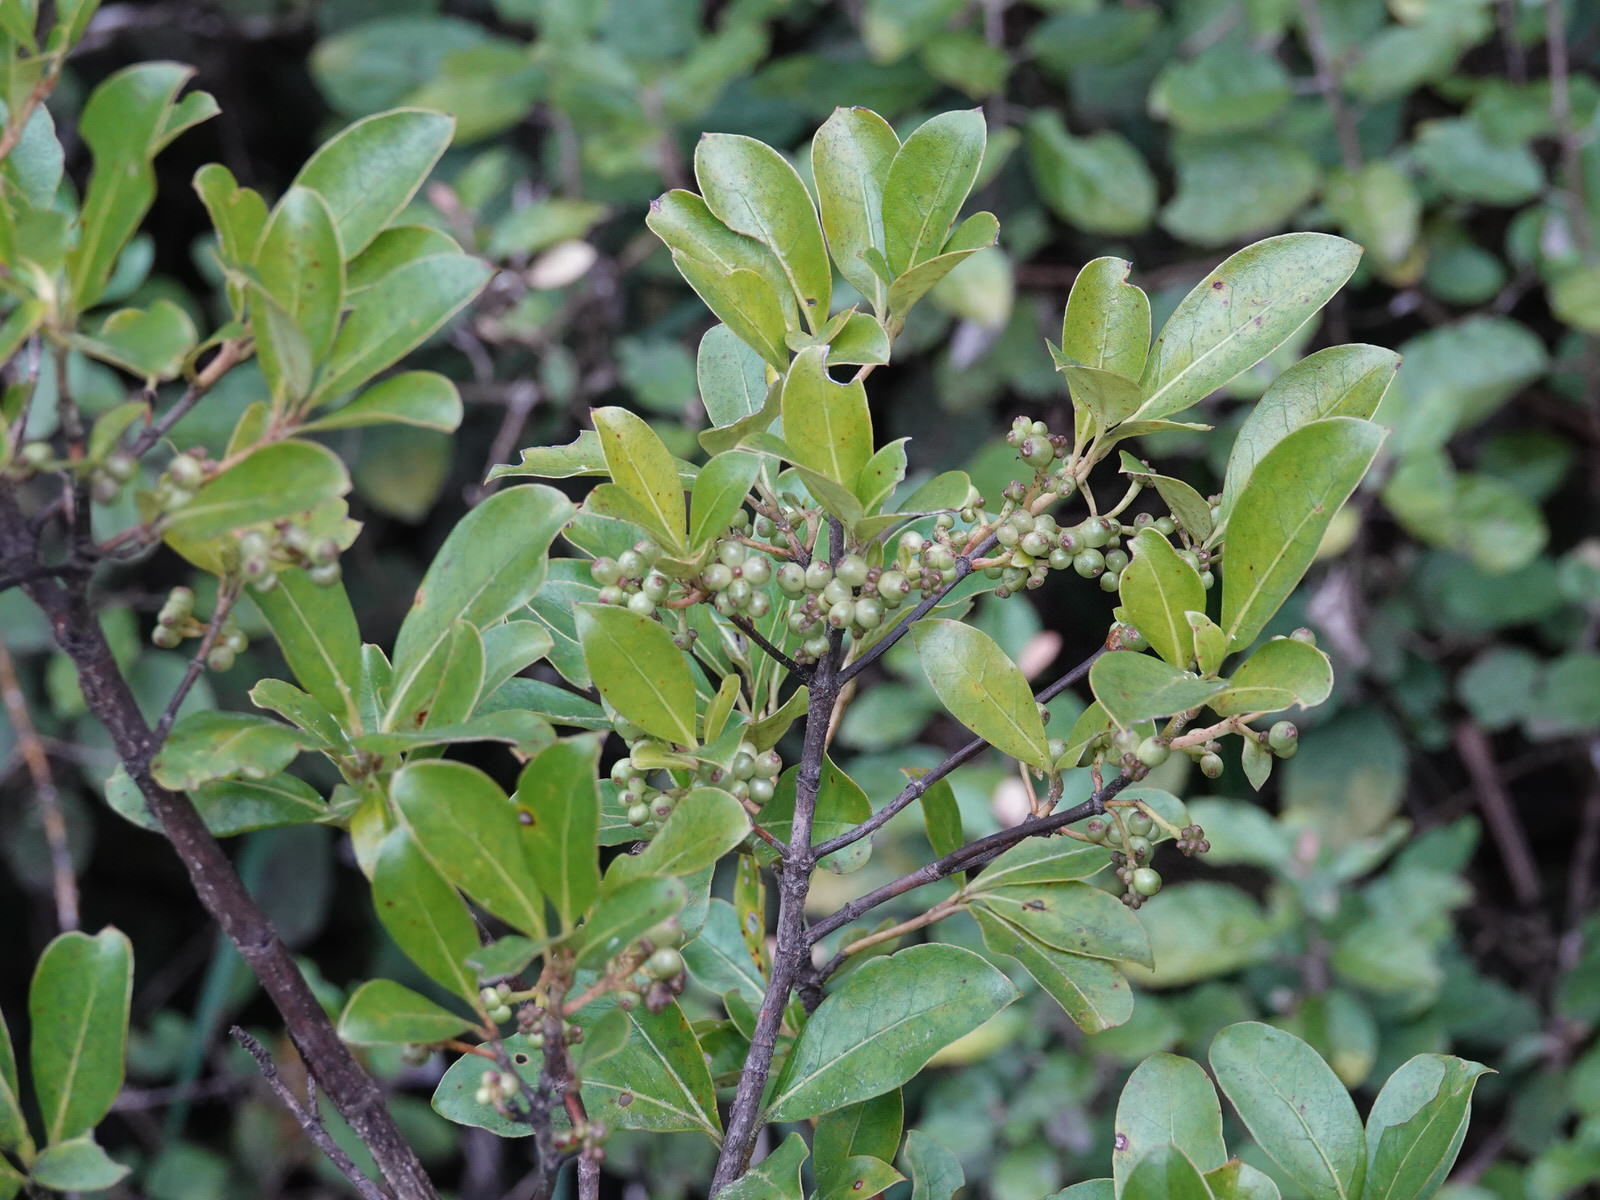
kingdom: Plantae
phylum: Tracheophyta
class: Magnoliopsida
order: Gentianales
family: Rubiaceae
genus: Coprosma
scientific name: Coprosma lucida
